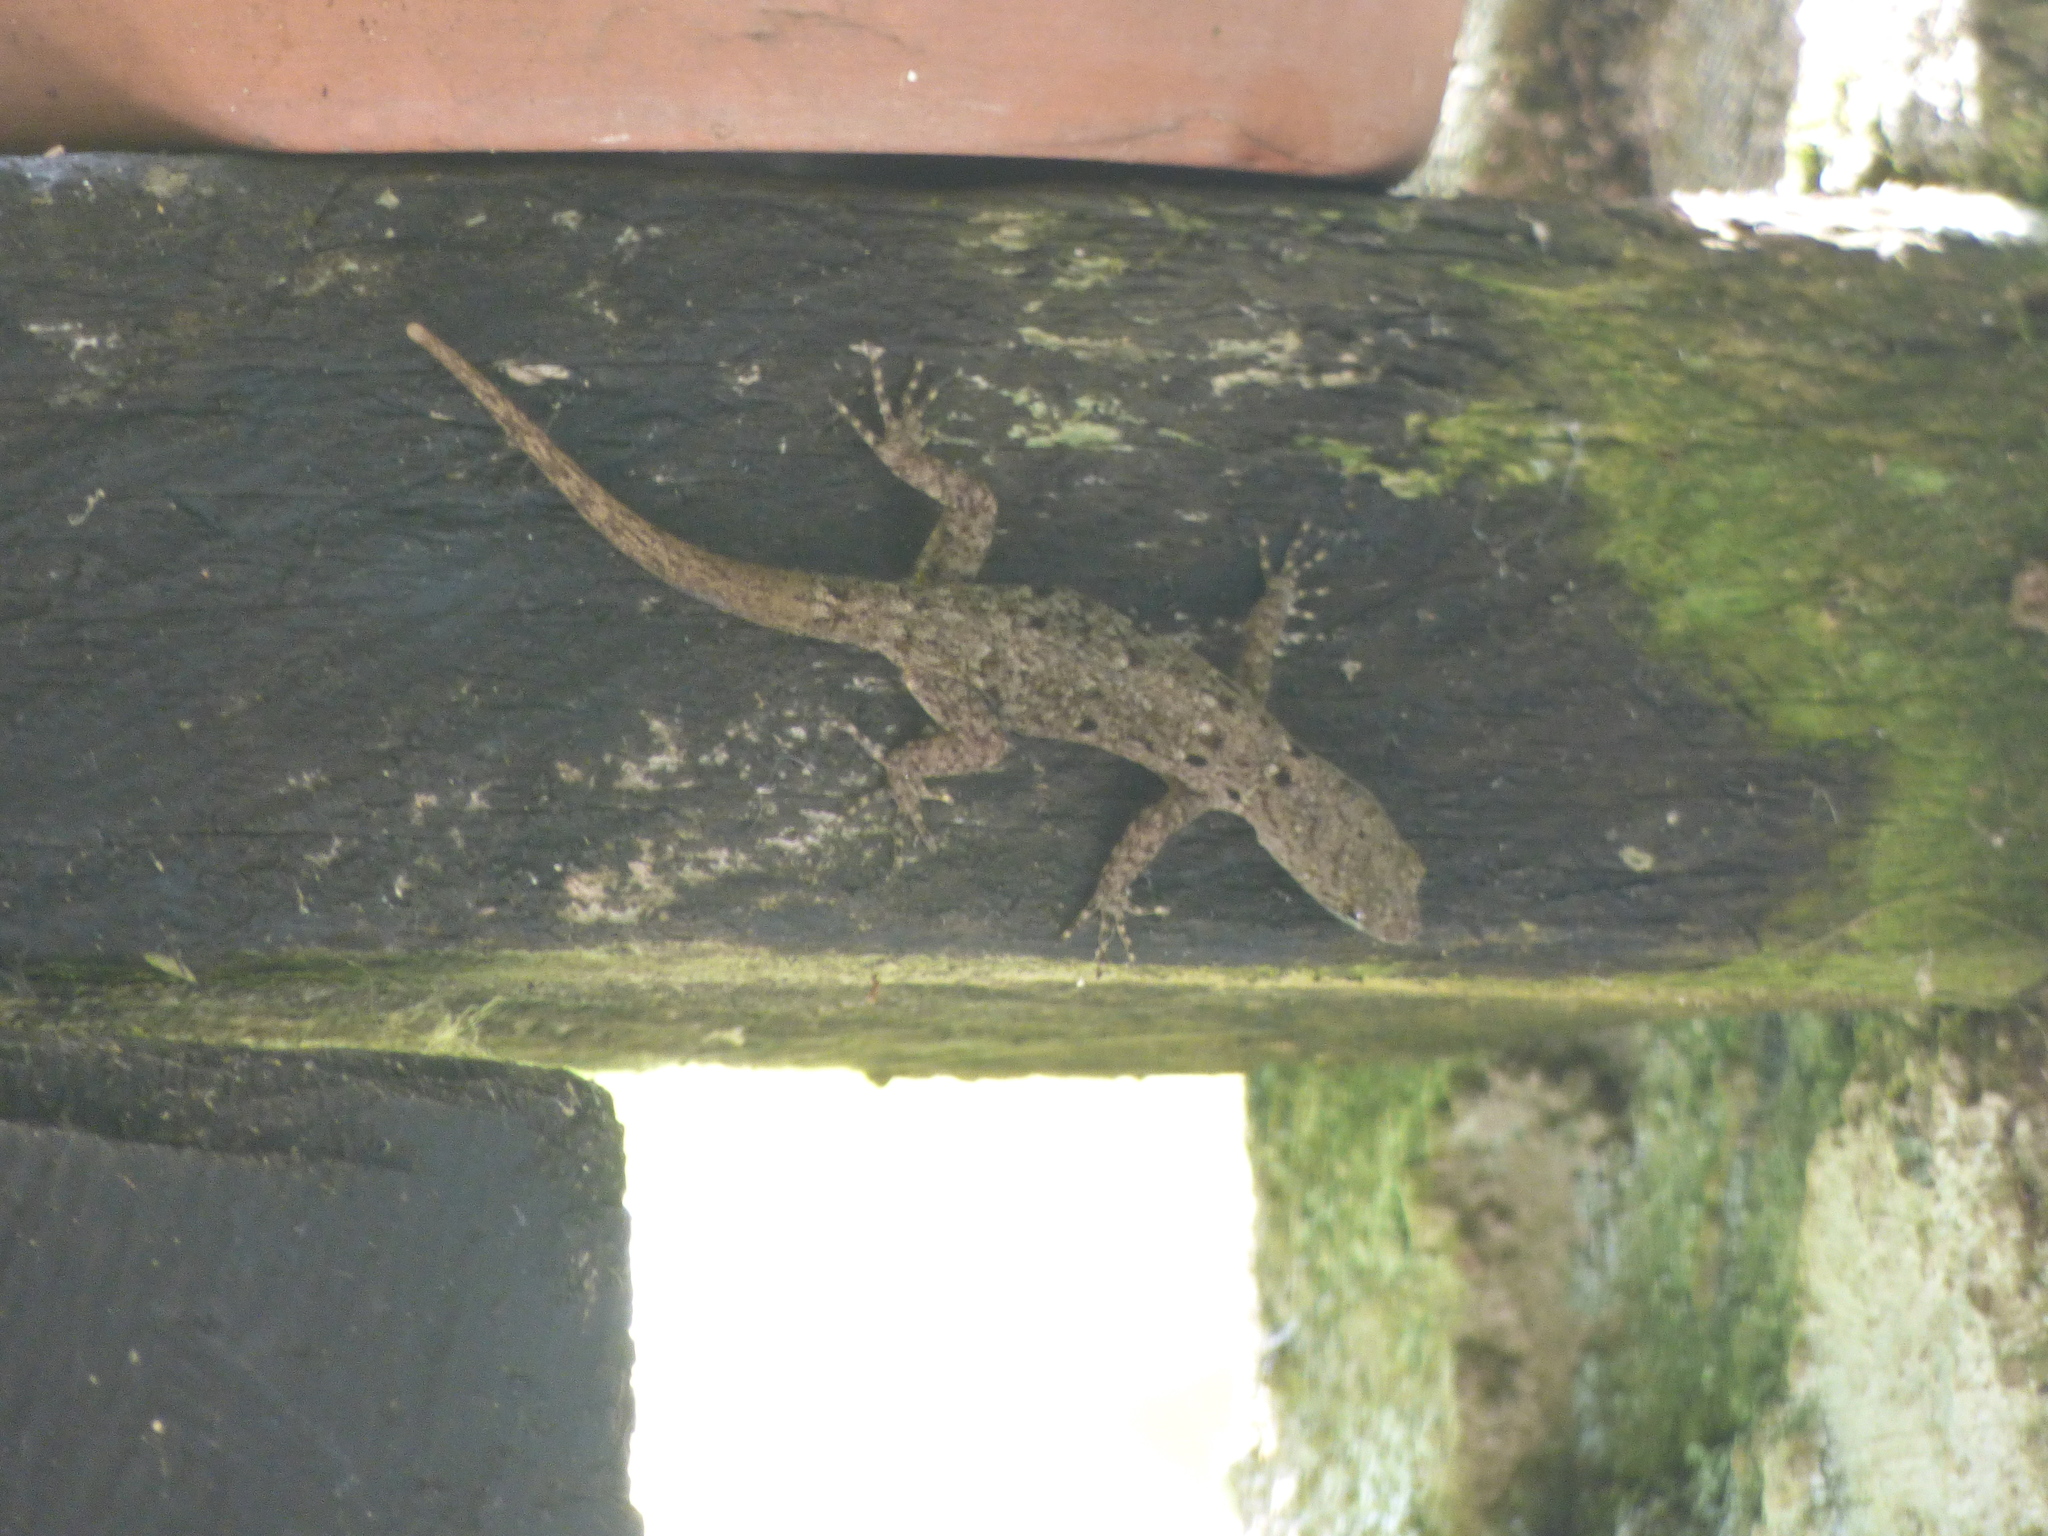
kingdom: Animalia
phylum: Chordata
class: Squamata
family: Sphaerodactylidae
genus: Gonatodes
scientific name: Gonatodes albogularis
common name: Yellow-headed gecko
